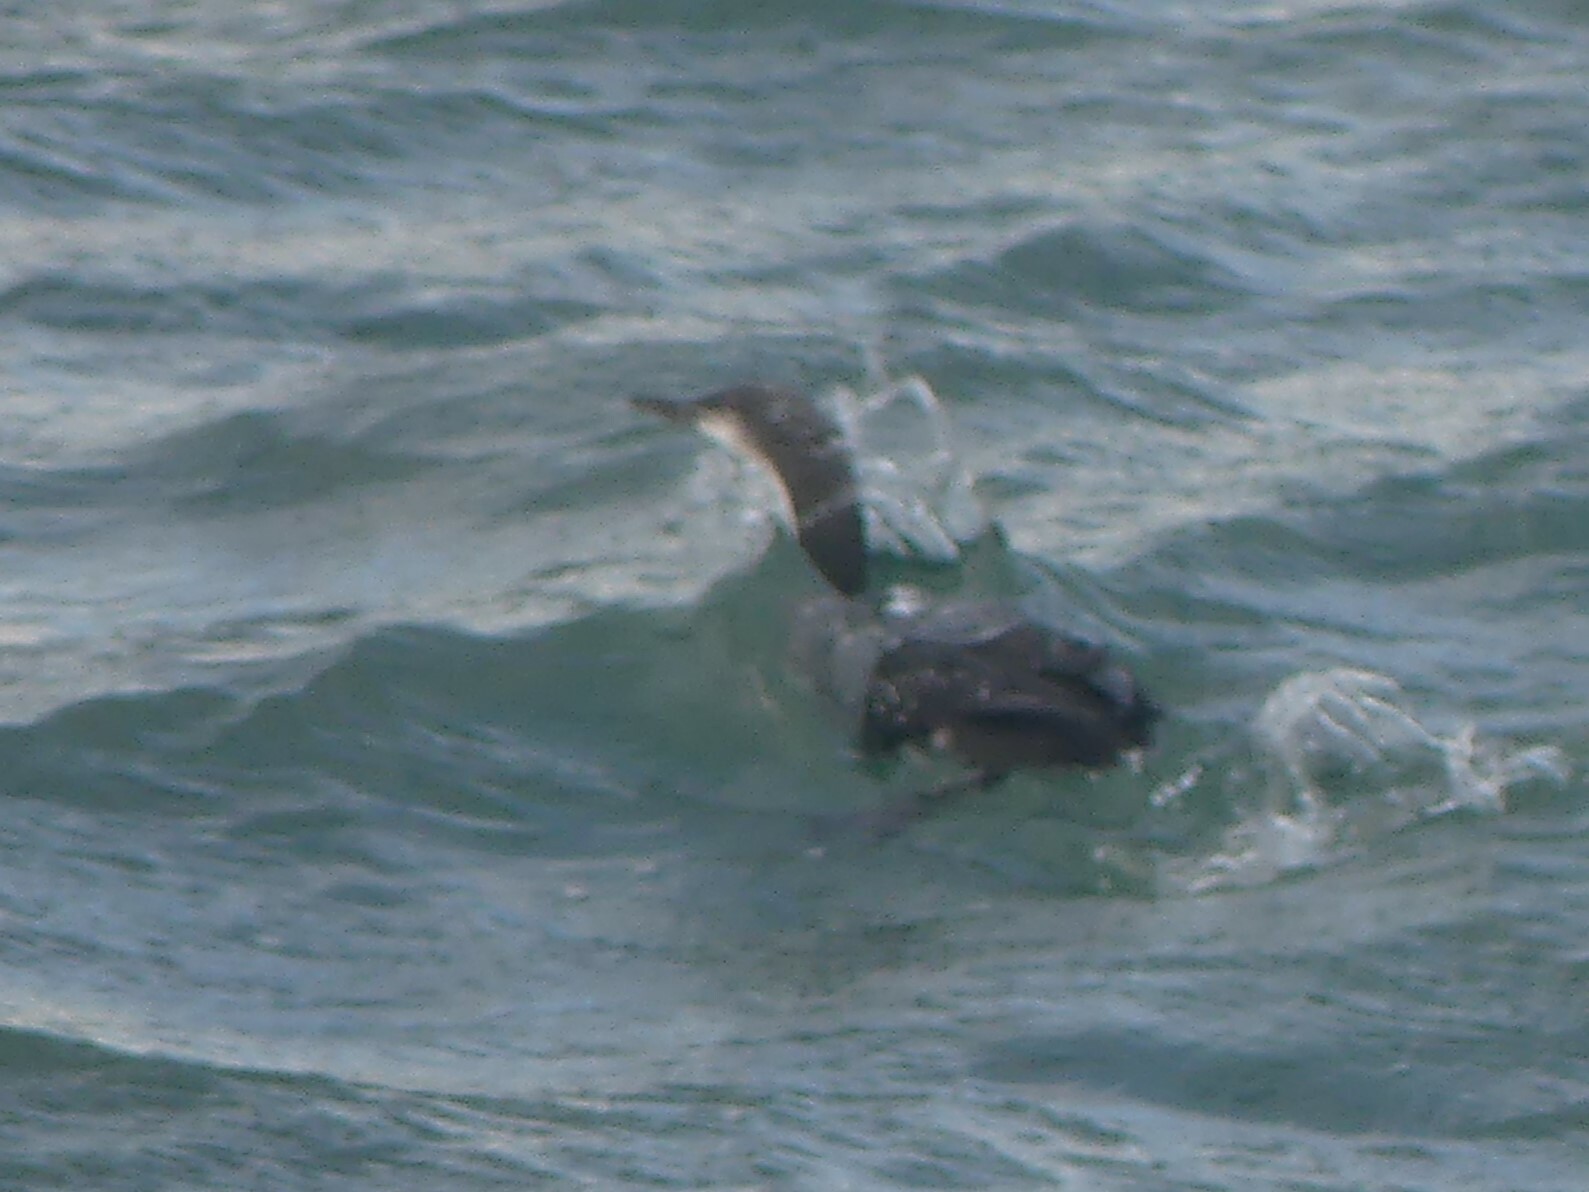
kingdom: Animalia
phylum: Chordata
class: Aves
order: Gaviiformes
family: Gaviidae
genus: Gavia
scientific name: Gavia pacifica
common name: Pacific loon
